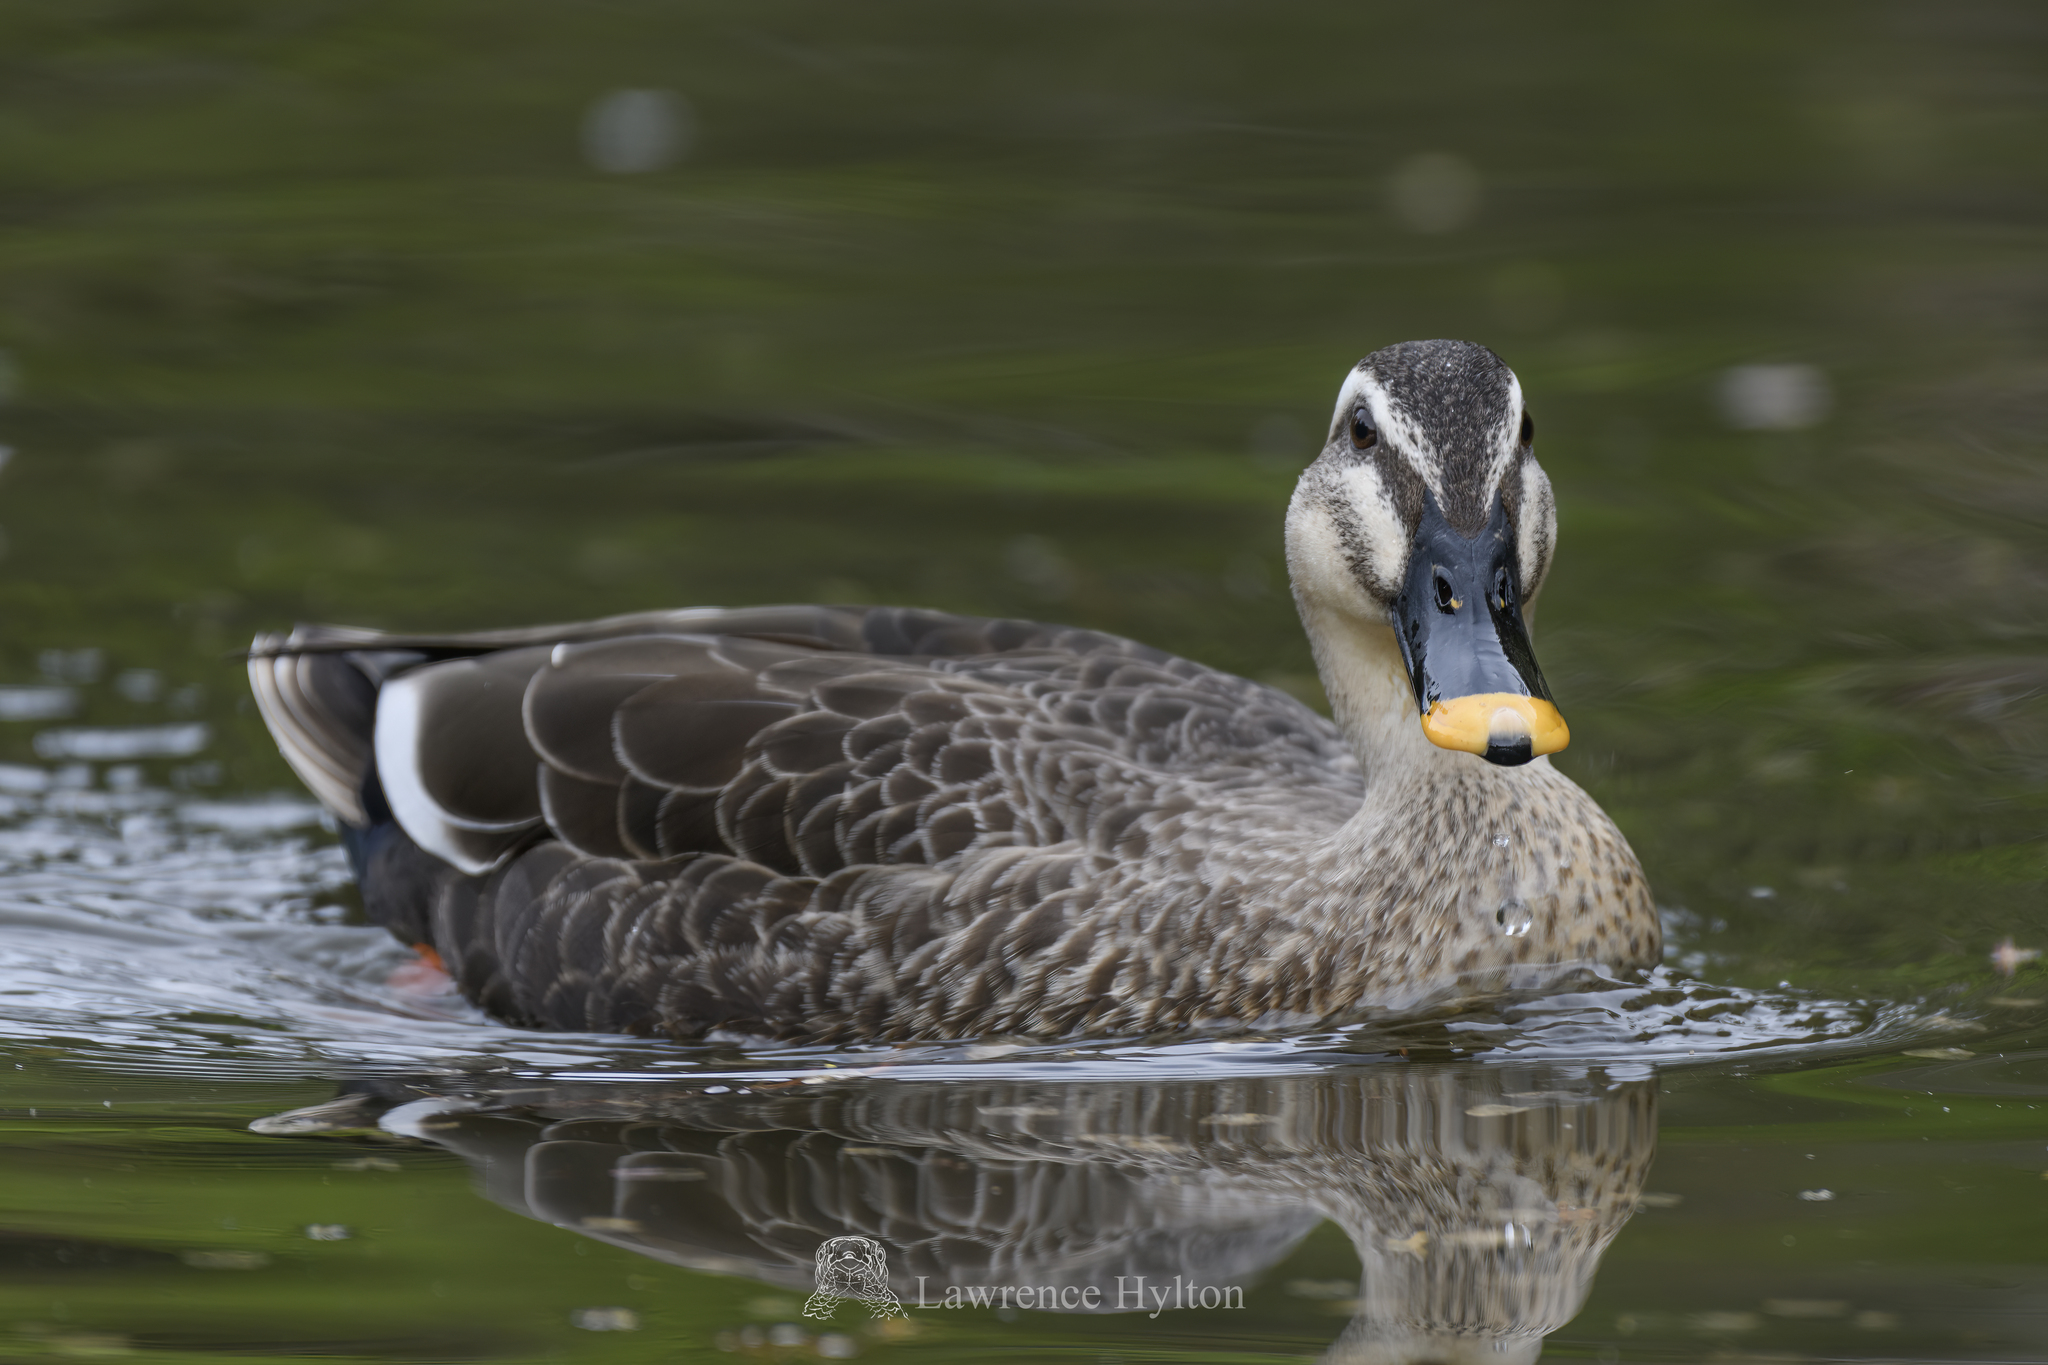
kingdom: Animalia
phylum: Chordata
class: Aves
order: Anseriformes
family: Anatidae
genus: Anas
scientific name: Anas zonorhyncha
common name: Eastern spot-billed duck
